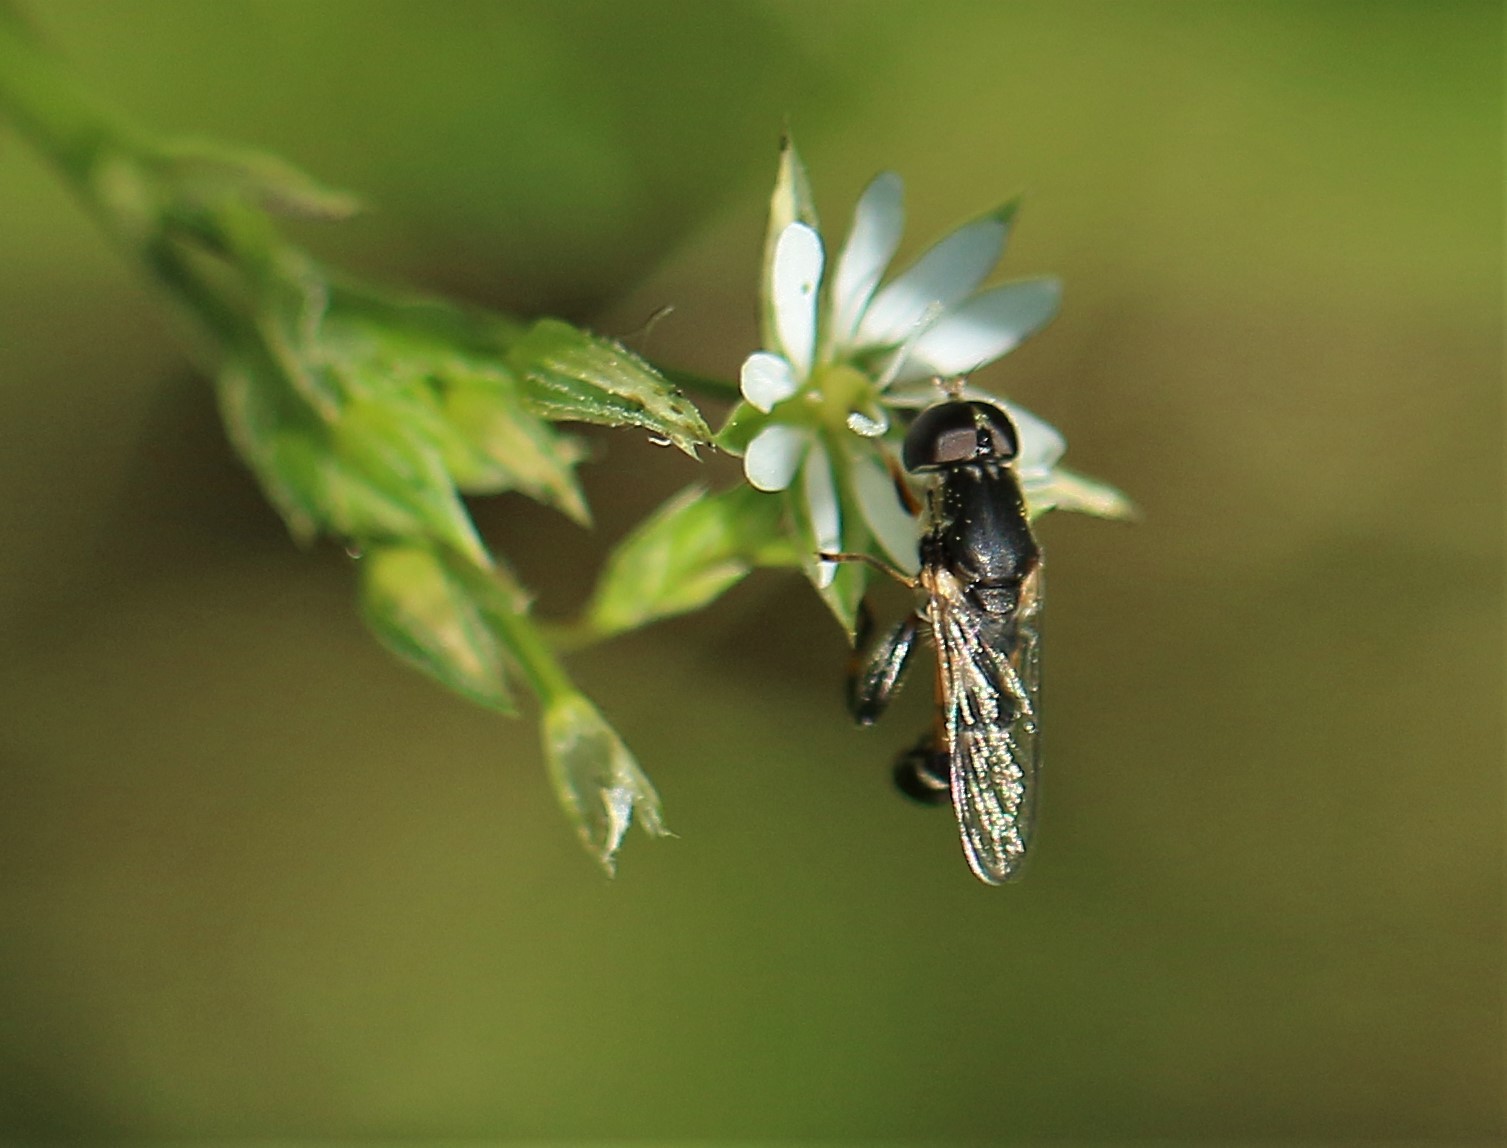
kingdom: Animalia
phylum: Arthropoda
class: Insecta
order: Diptera
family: Syrphidae
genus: Syritta
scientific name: Syritta pipiens
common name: Hover fly
